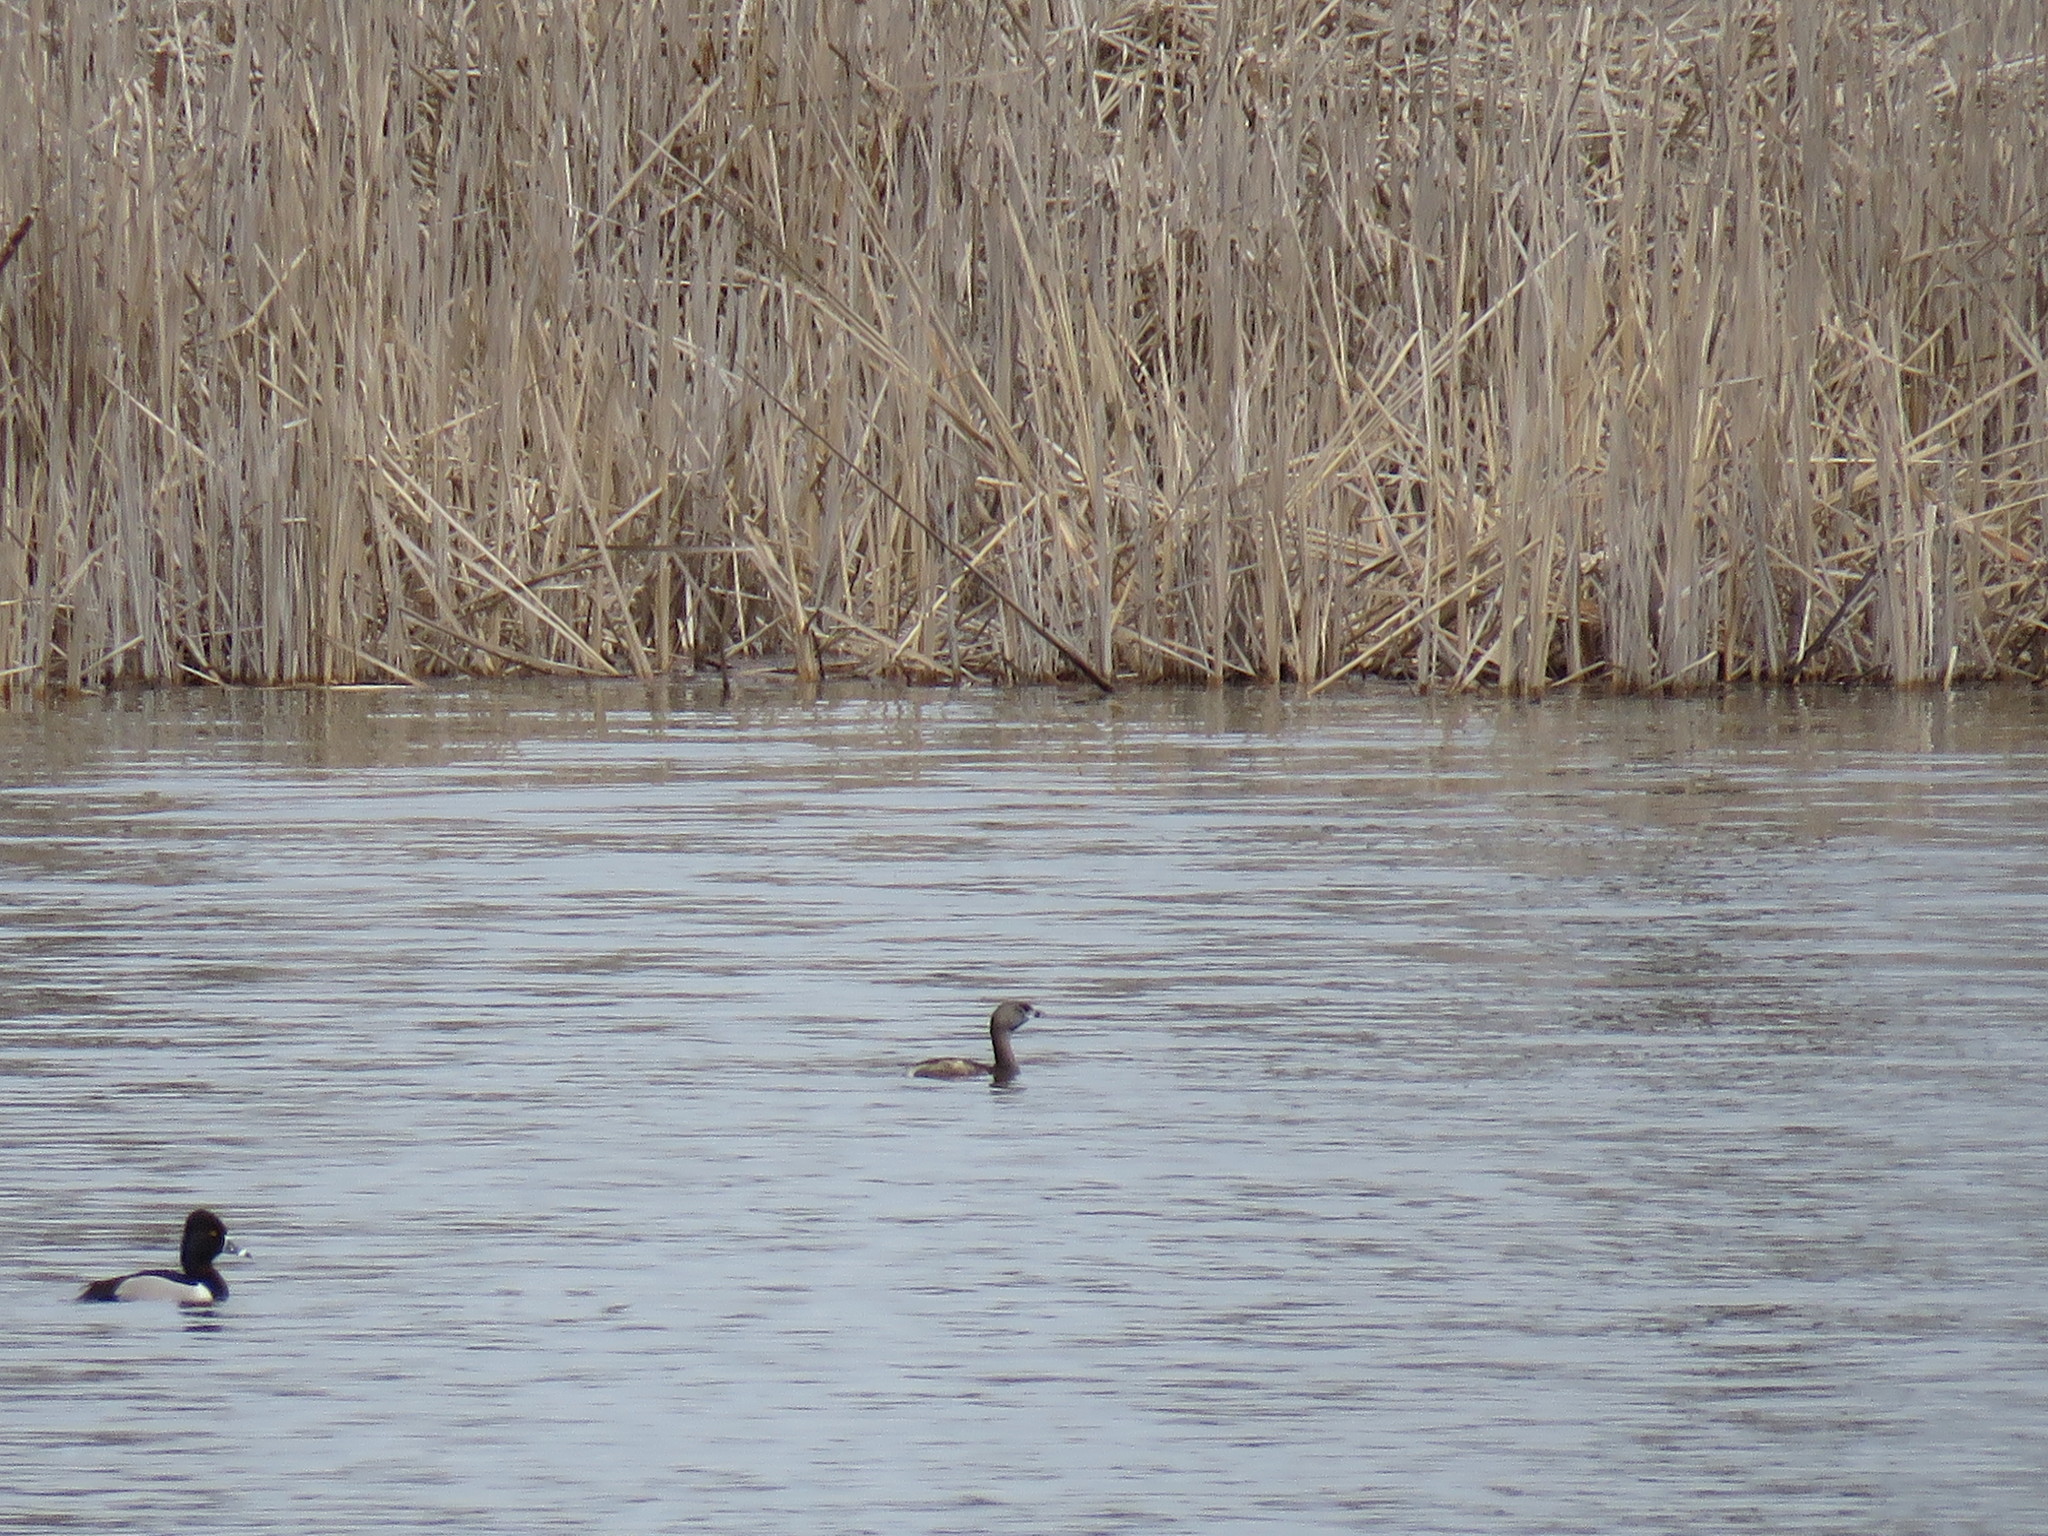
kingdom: Animalia
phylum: Chordata
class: Aves
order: Podicipediformes
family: Podicipedidae
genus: Podilymbus
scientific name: Podilymbus podiceps
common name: Pied-billed grebe
